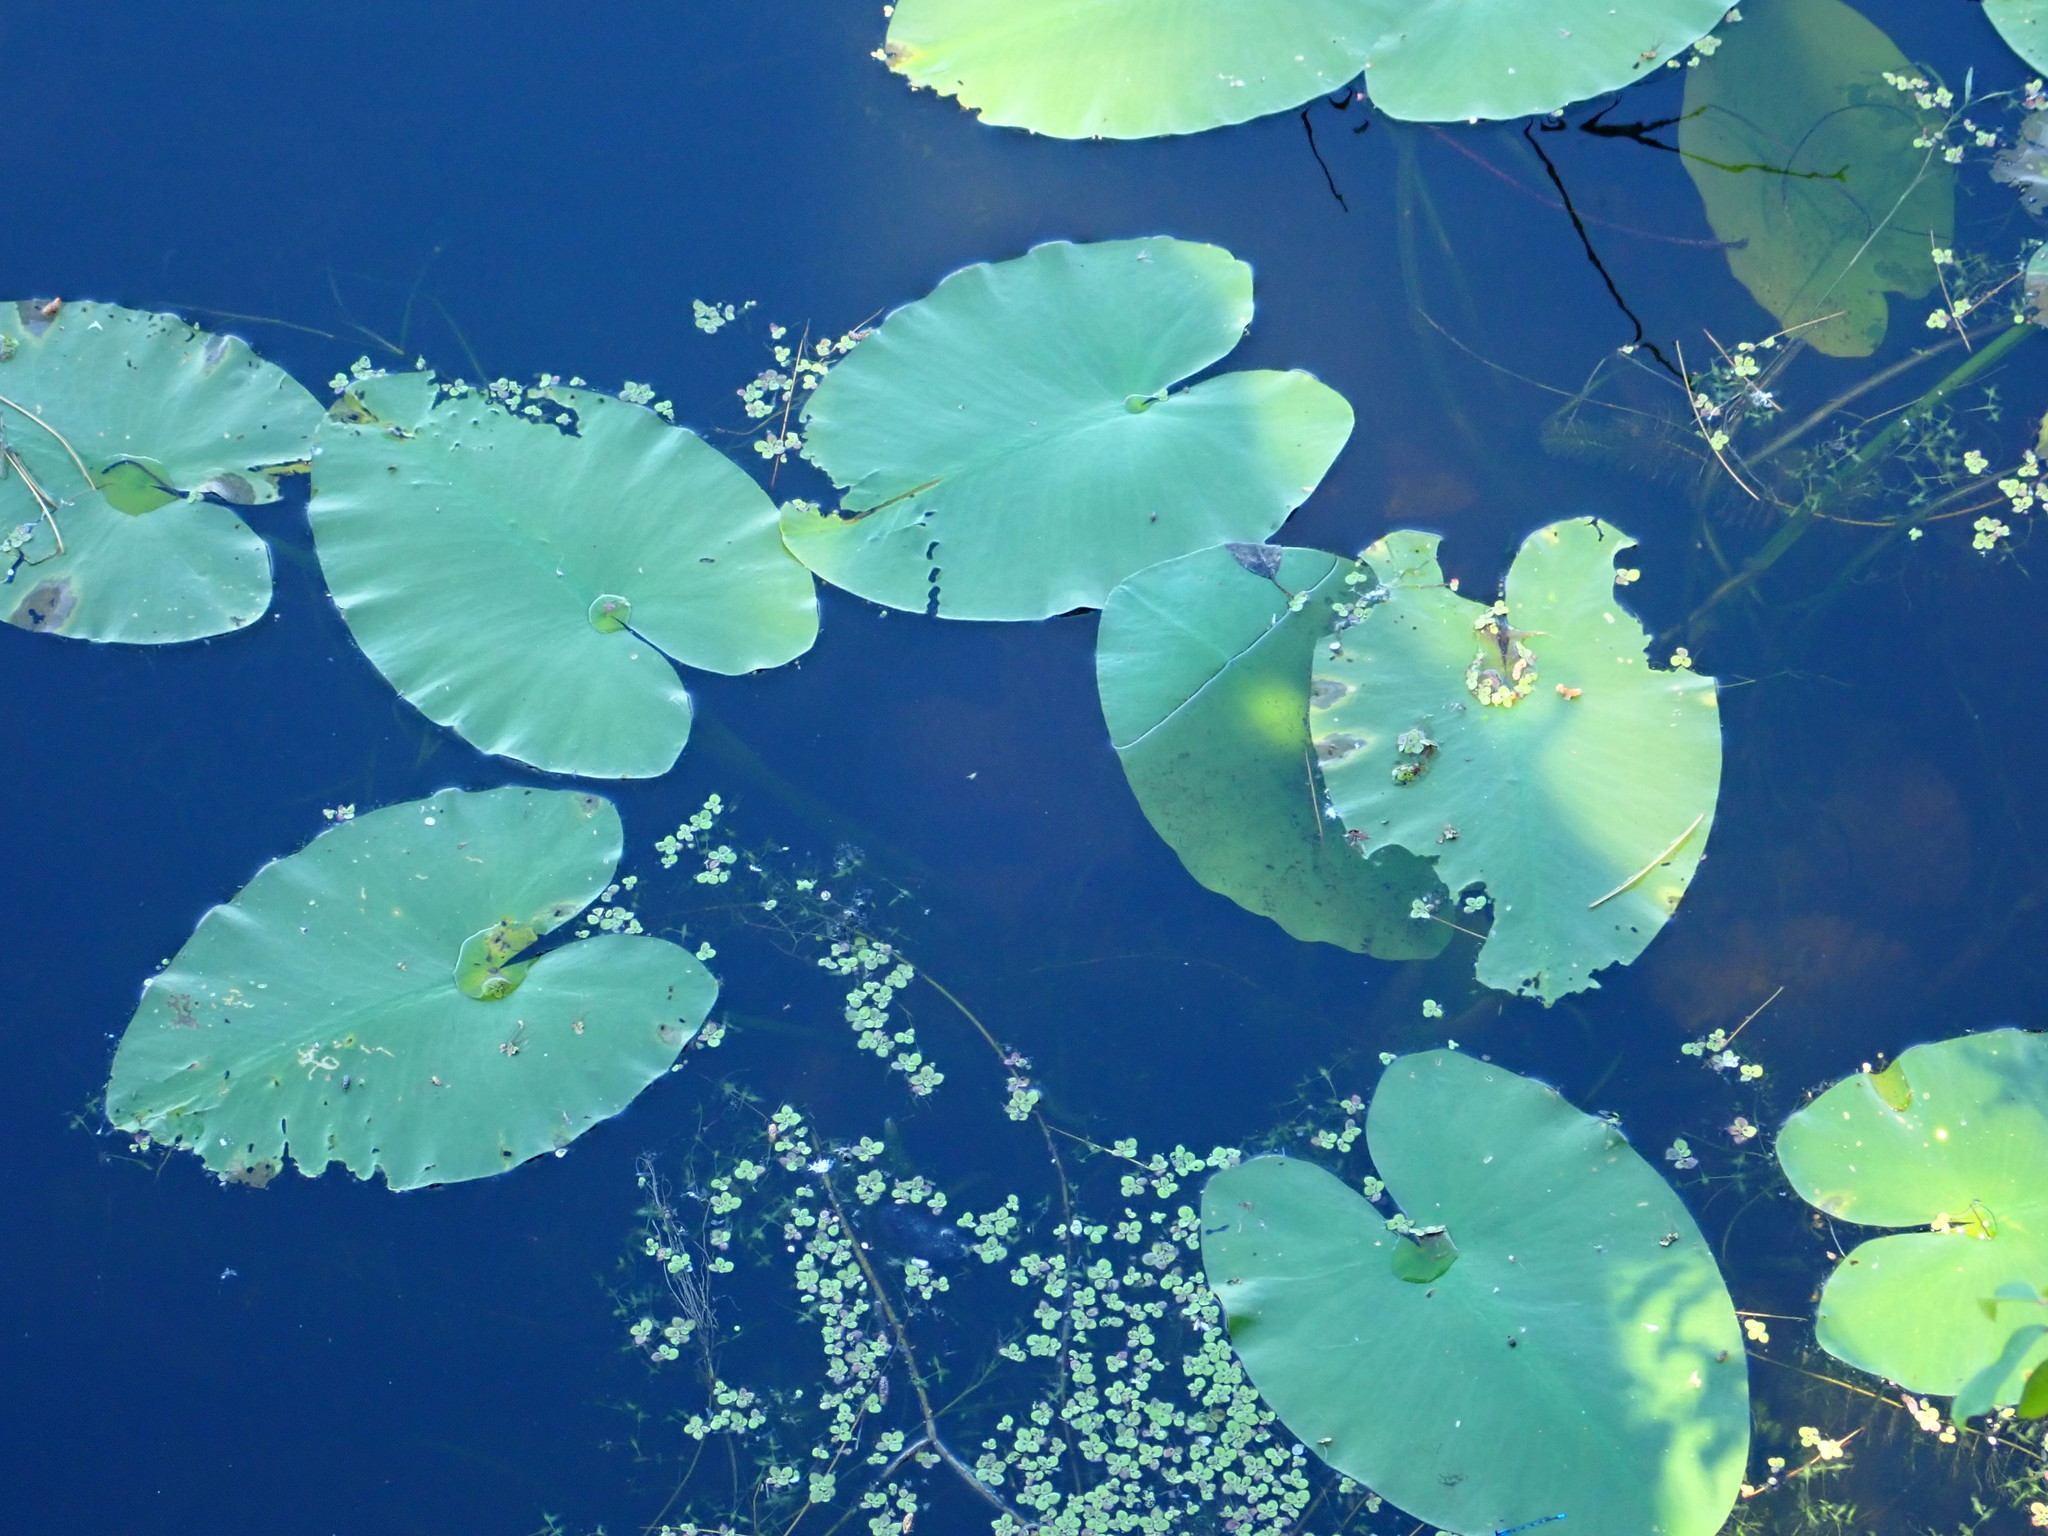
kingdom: Plantae
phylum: Tracheophyta
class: Magnoliopsida
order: Nymphaeales
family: Nymphaeaceae
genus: Nuphar
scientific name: Nuphar variegata
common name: Beaver-root
